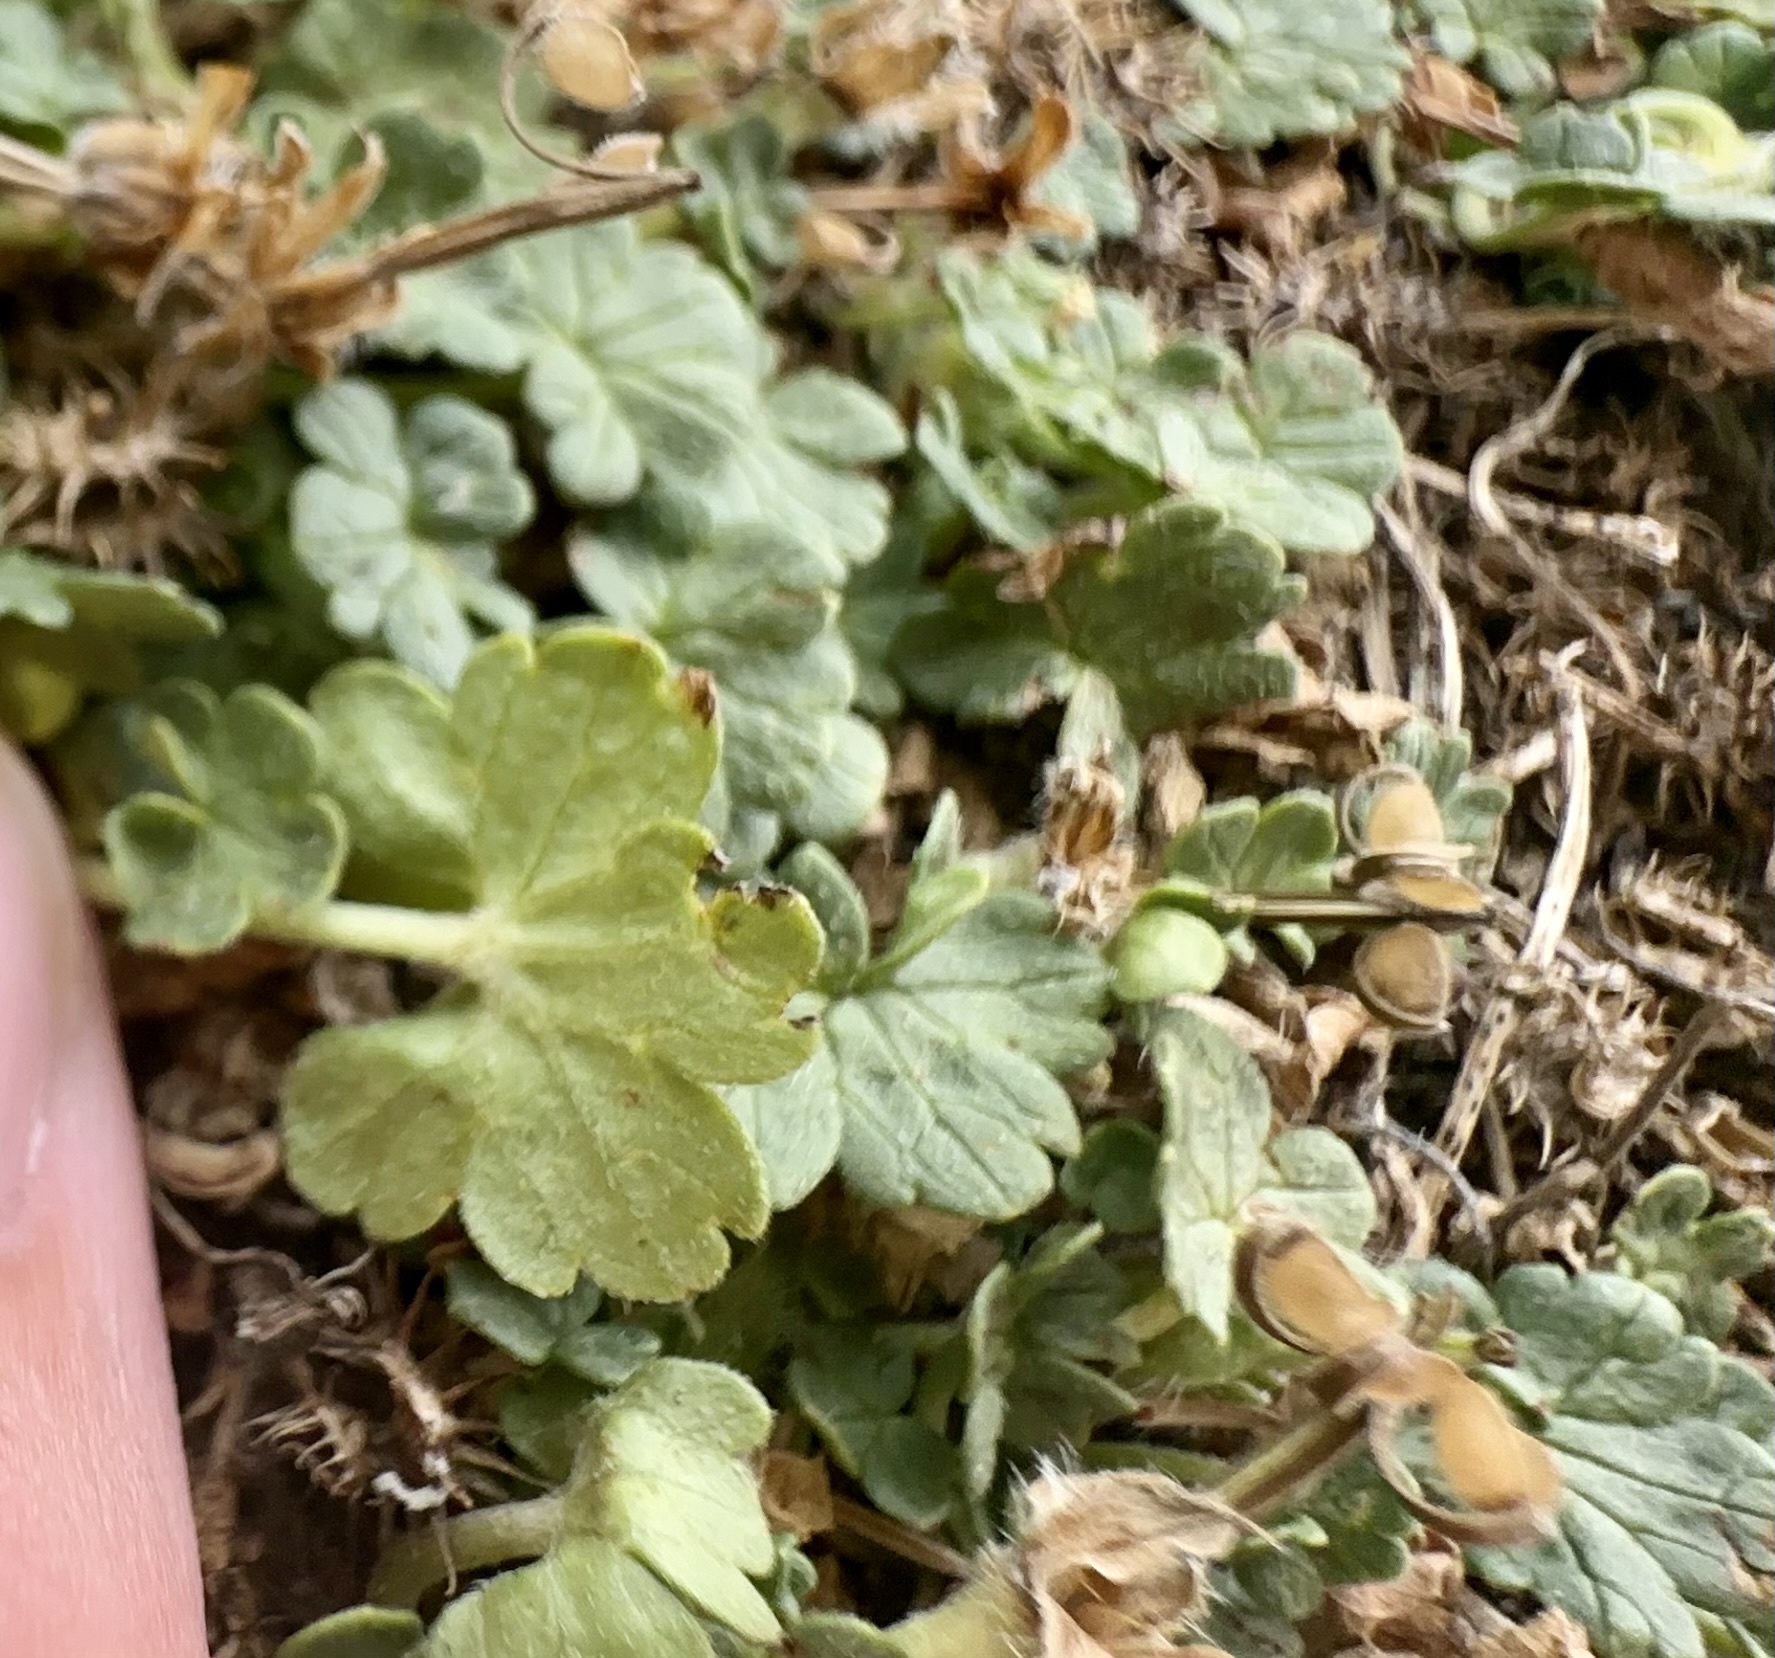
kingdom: Plantae
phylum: Tracheophyta
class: Magnoliopsida
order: Geraniales
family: Geraniaceae
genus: Geranium
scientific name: Geranium brevicaule
